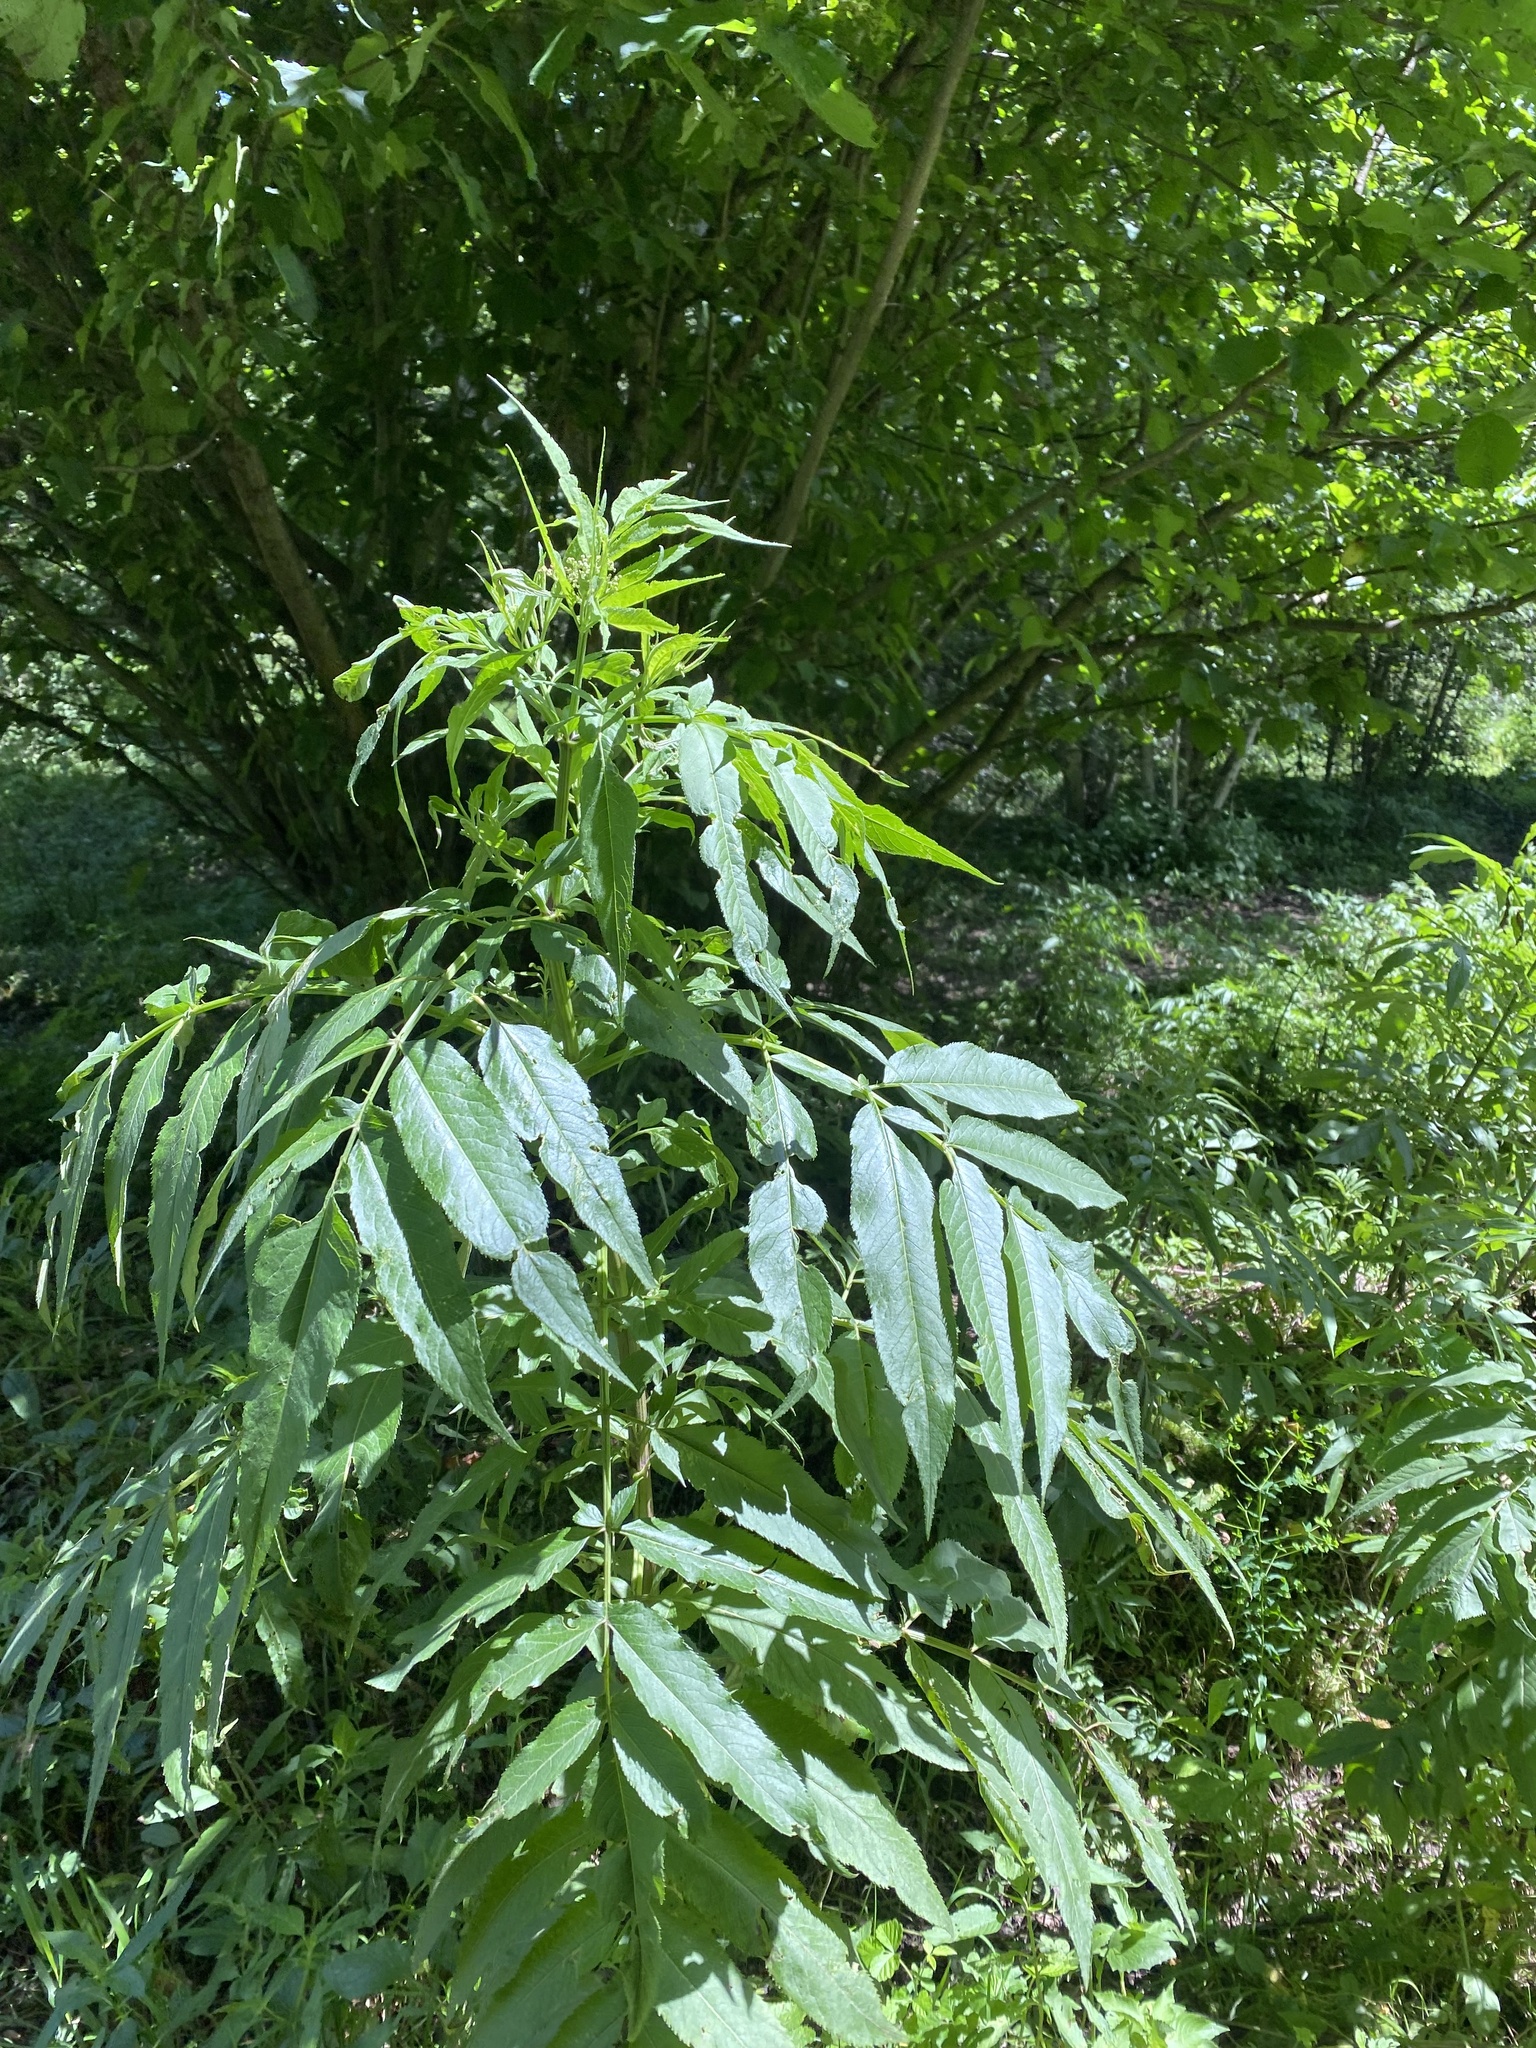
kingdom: Plantae
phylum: Tracheophyta
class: Magnoliopsida
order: Dipsacales
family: Viburnaceae
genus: Sambucus
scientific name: Sambucus ebulus
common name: Dwarf elder
